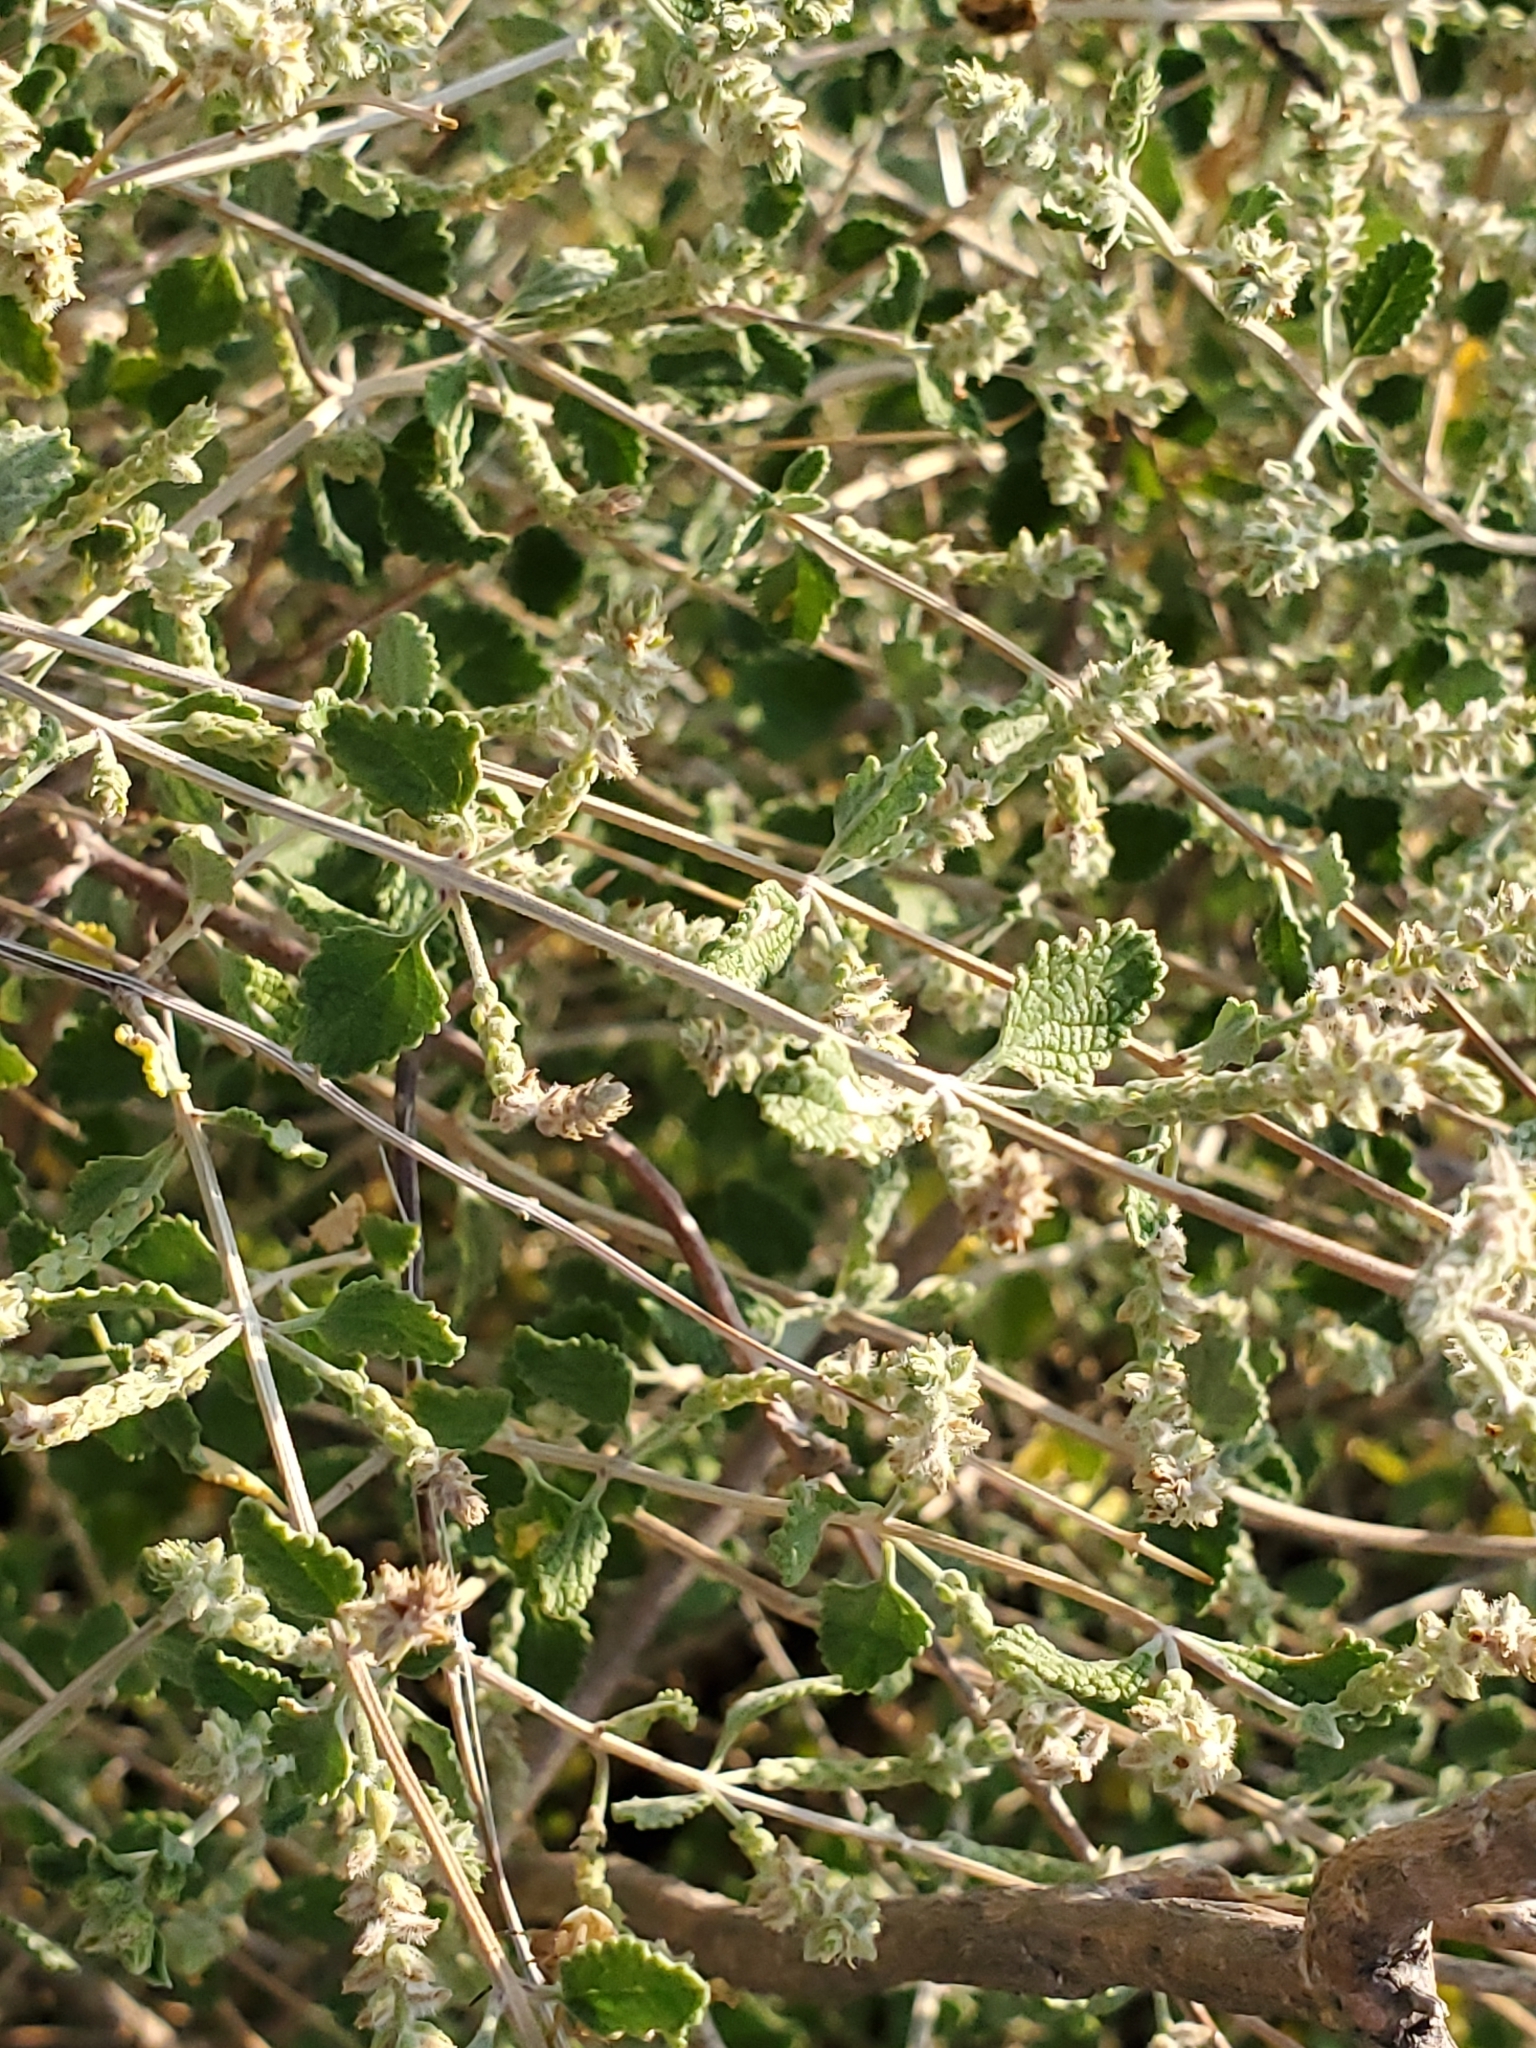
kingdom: Plantae
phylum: Tracheophyta
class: Magnoliopsida
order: Lamiales
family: Verbenaceae
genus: Aloysia
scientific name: Aloysia wrightii
